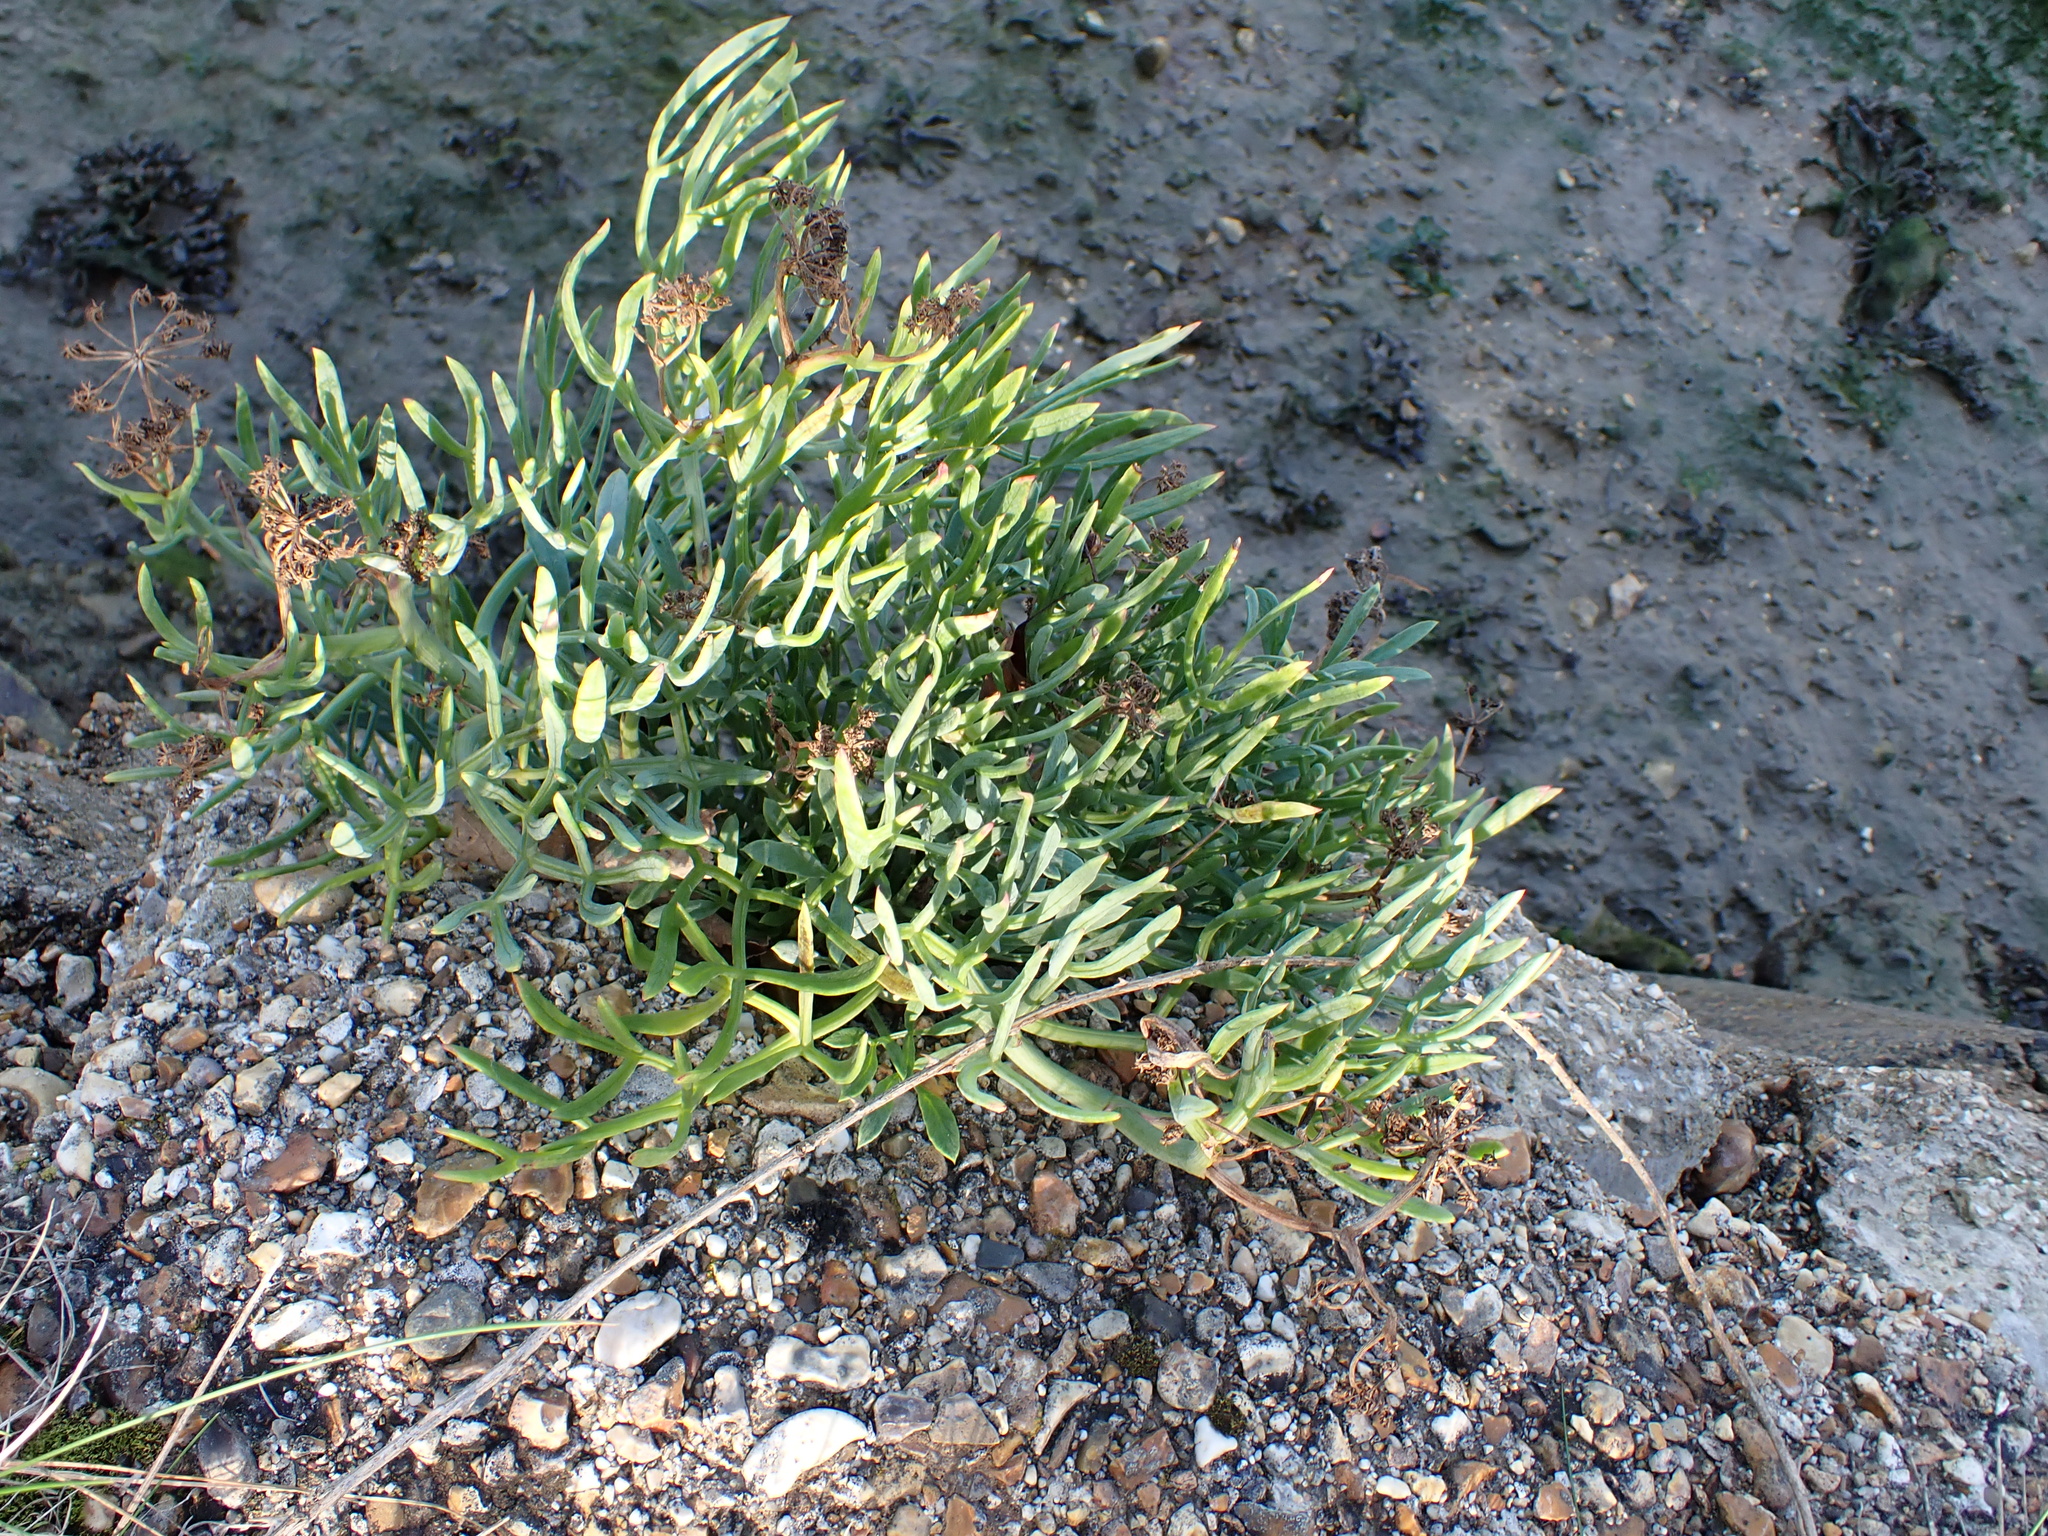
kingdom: Plantae
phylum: Tracheophyta
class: Magnoliopsida
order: Apiales
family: Apiaceae
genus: Crithmum
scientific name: Crithmum maritimum
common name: Rock samphire
